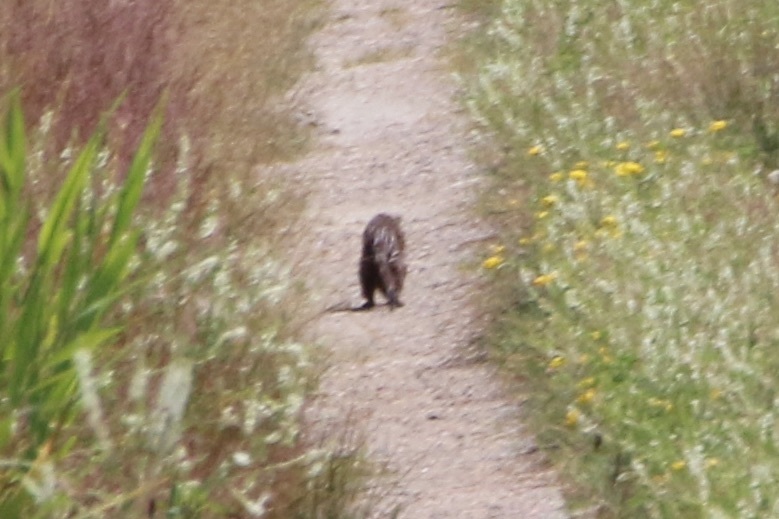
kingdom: Animalia
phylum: Chordata
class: Mammalia
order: Carnivora
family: Mustelidae
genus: Mustela
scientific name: Mustela
